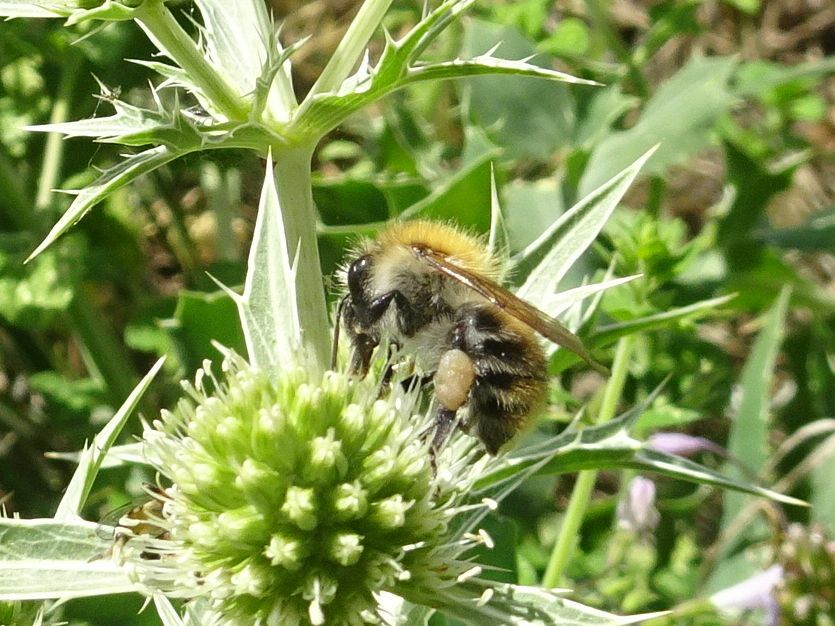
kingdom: Animalia
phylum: Arthropoda
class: Insecta
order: Hymenoptera
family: Apidae
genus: Bombus
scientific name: Bombus pascuorum
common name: Common carder bee
